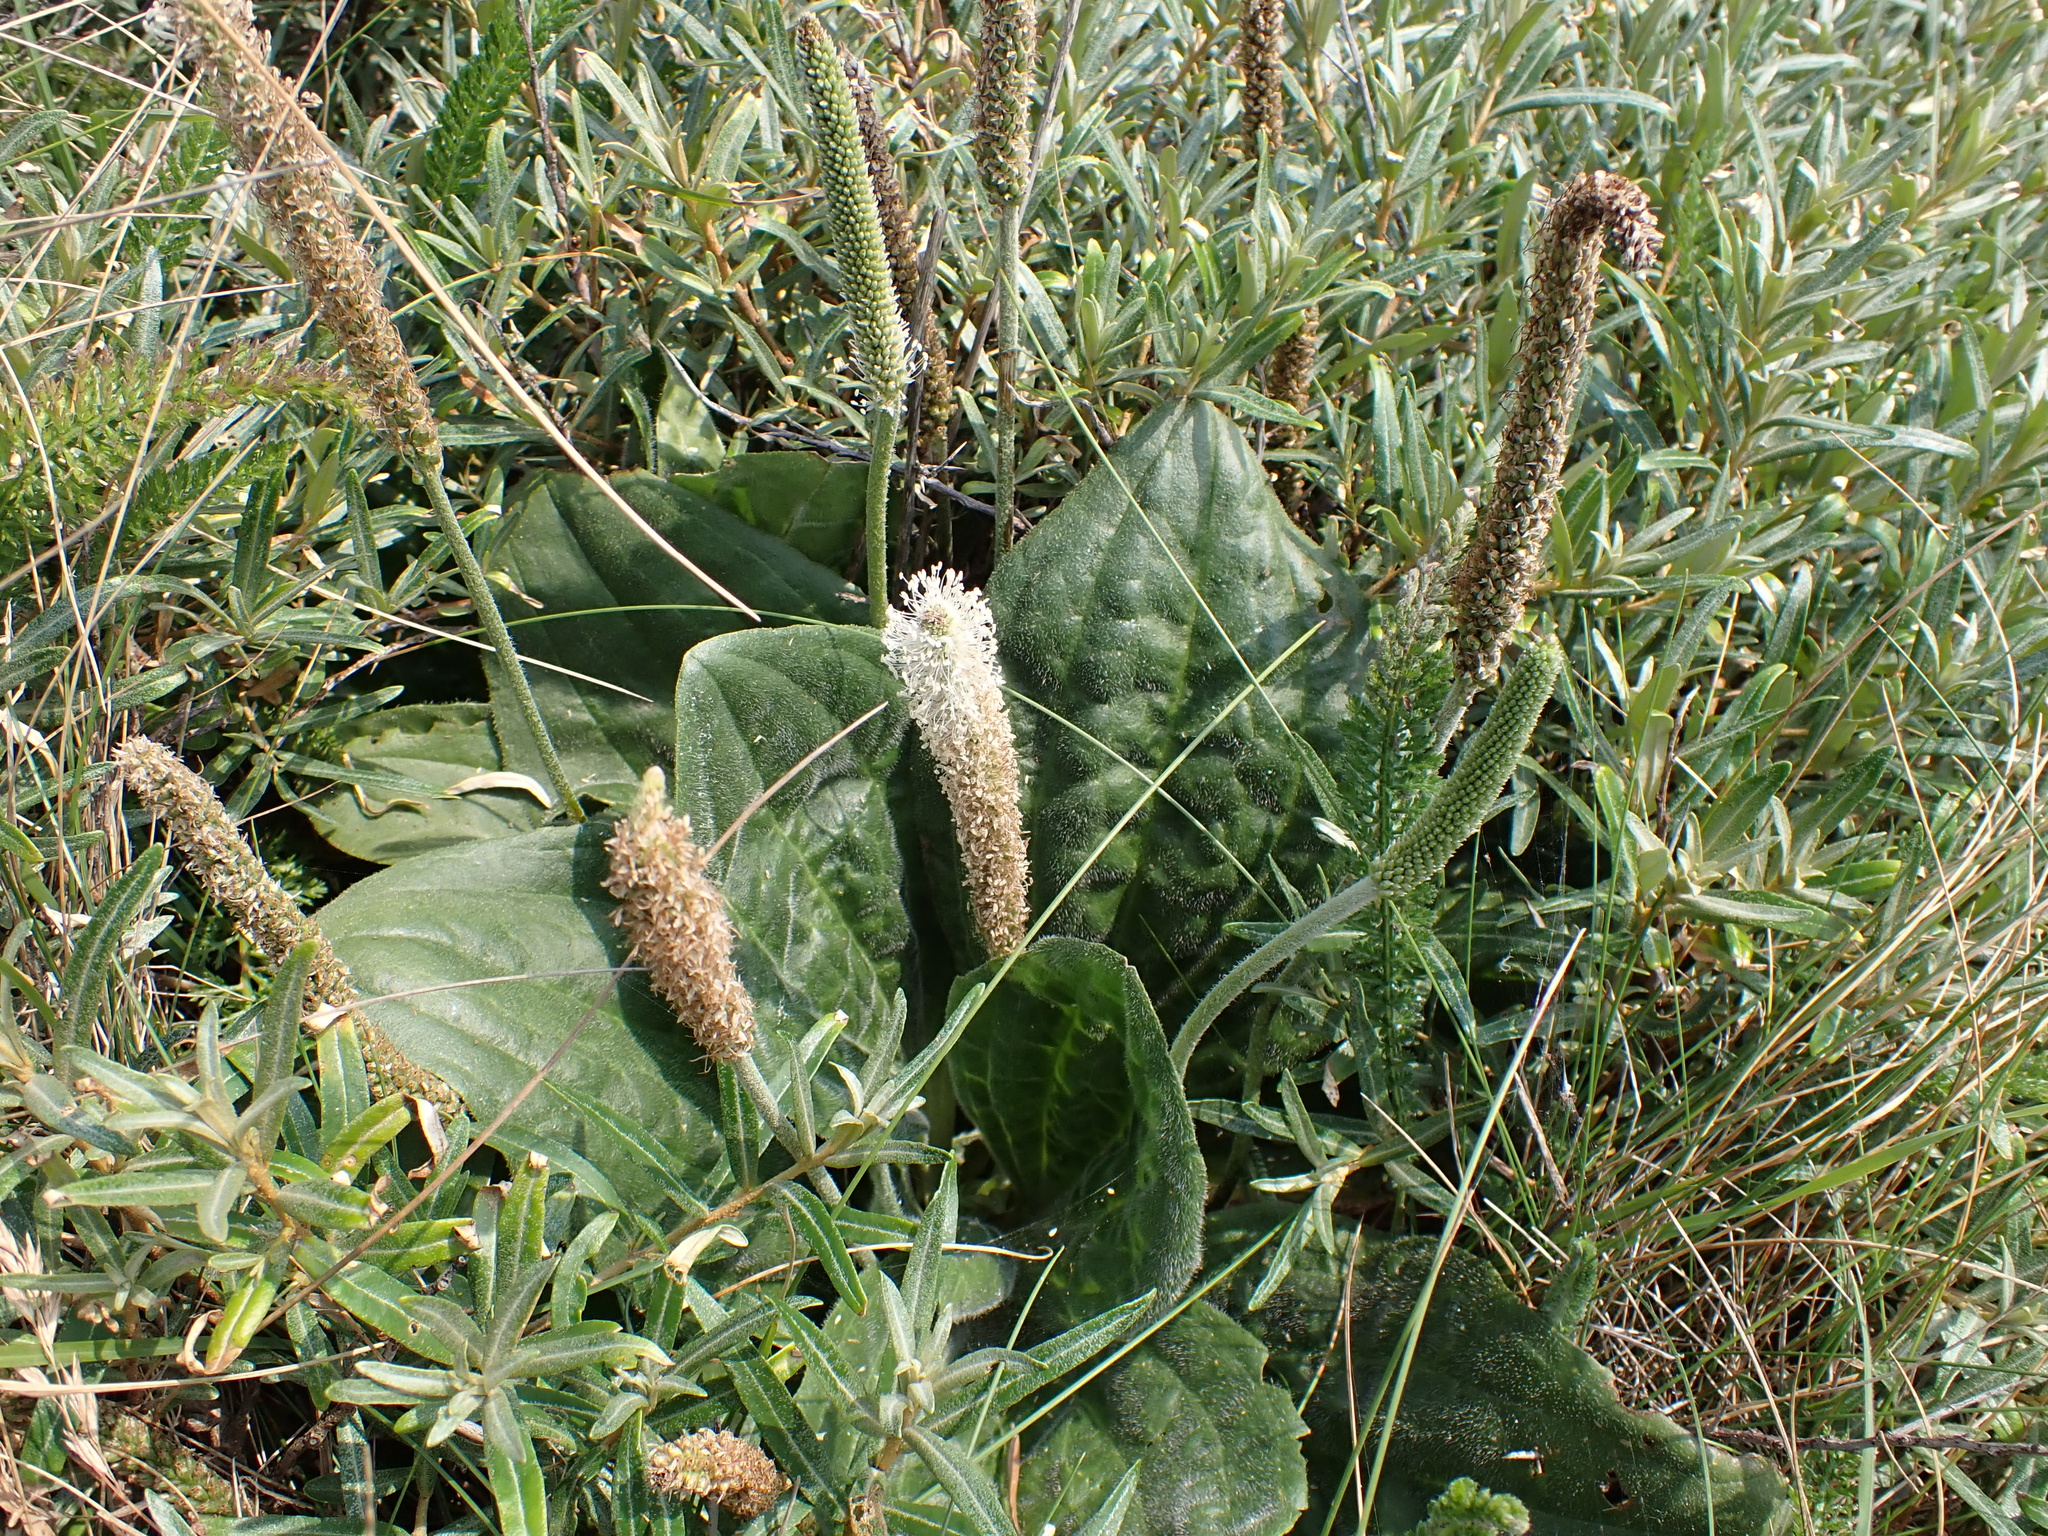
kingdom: Plantae
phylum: Tracheophyta
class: Magnoliopsida
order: Lamiales
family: Plantaginaceae
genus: Plantago
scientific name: Plantago media
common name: Hoary plantain
